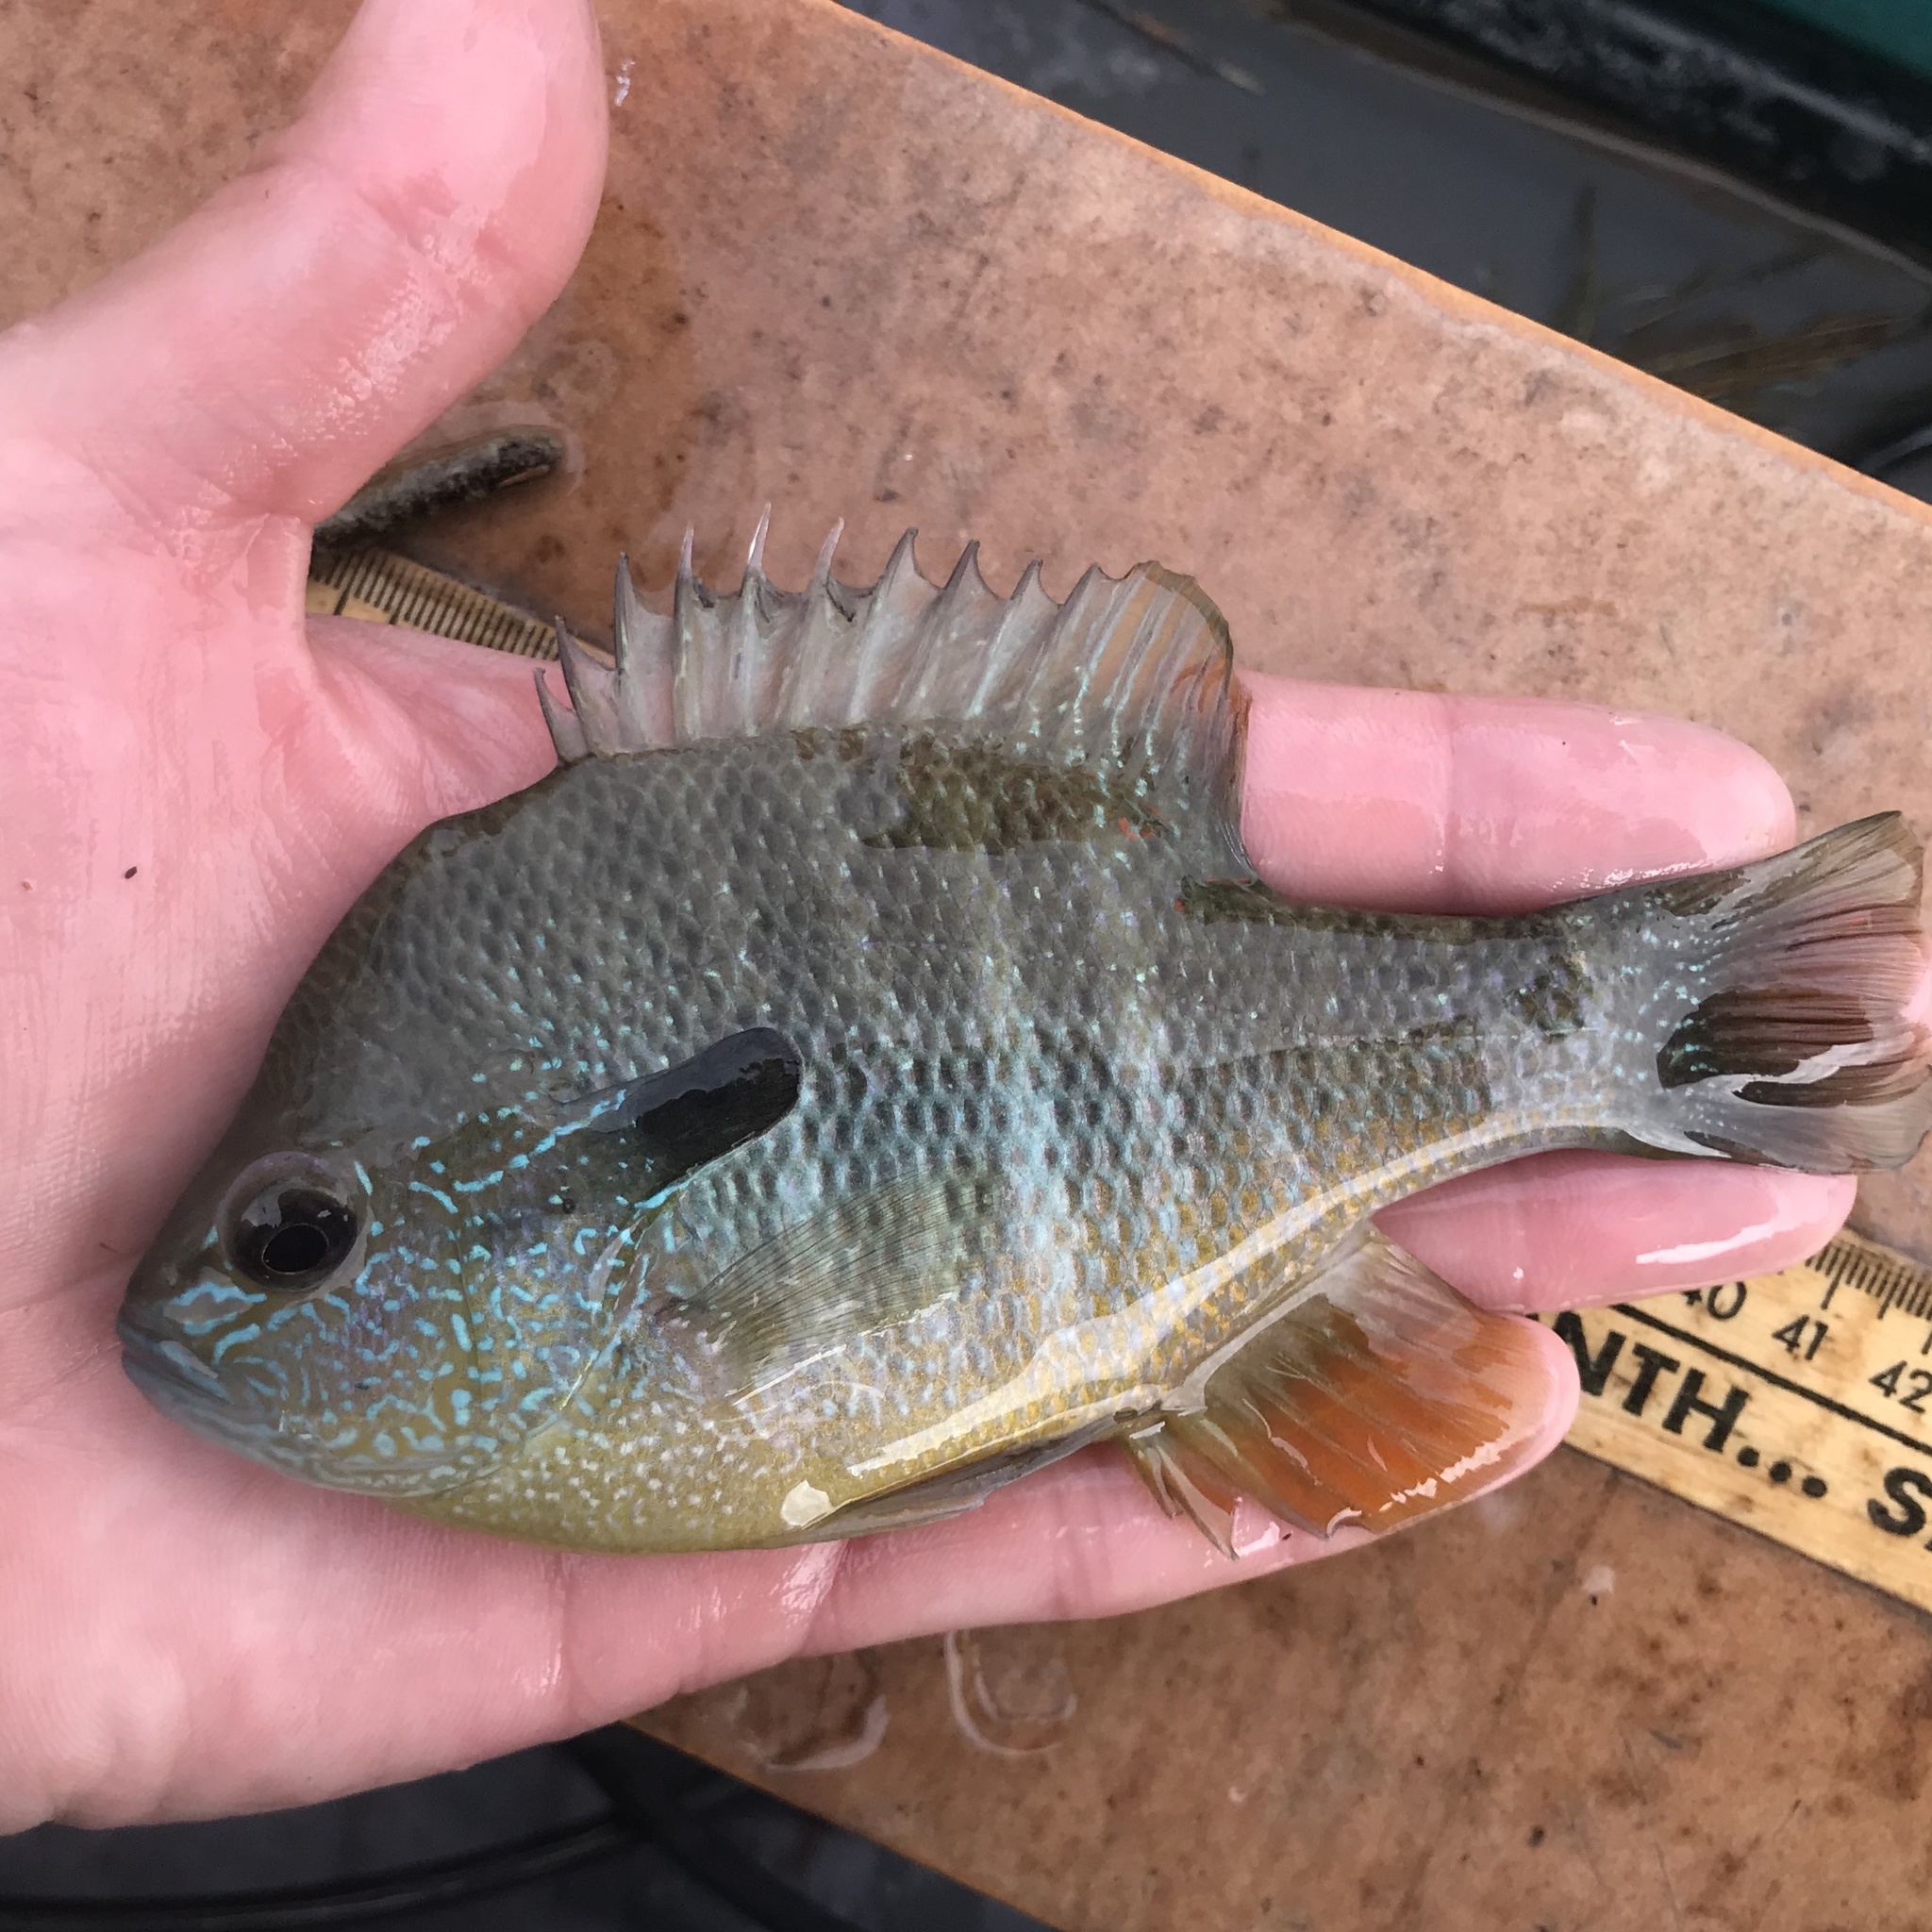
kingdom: Animalia
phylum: Chordata
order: Perciformes
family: Centrarchidae
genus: Lepomis
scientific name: Lepomis megalotis
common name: Longear sunfish
